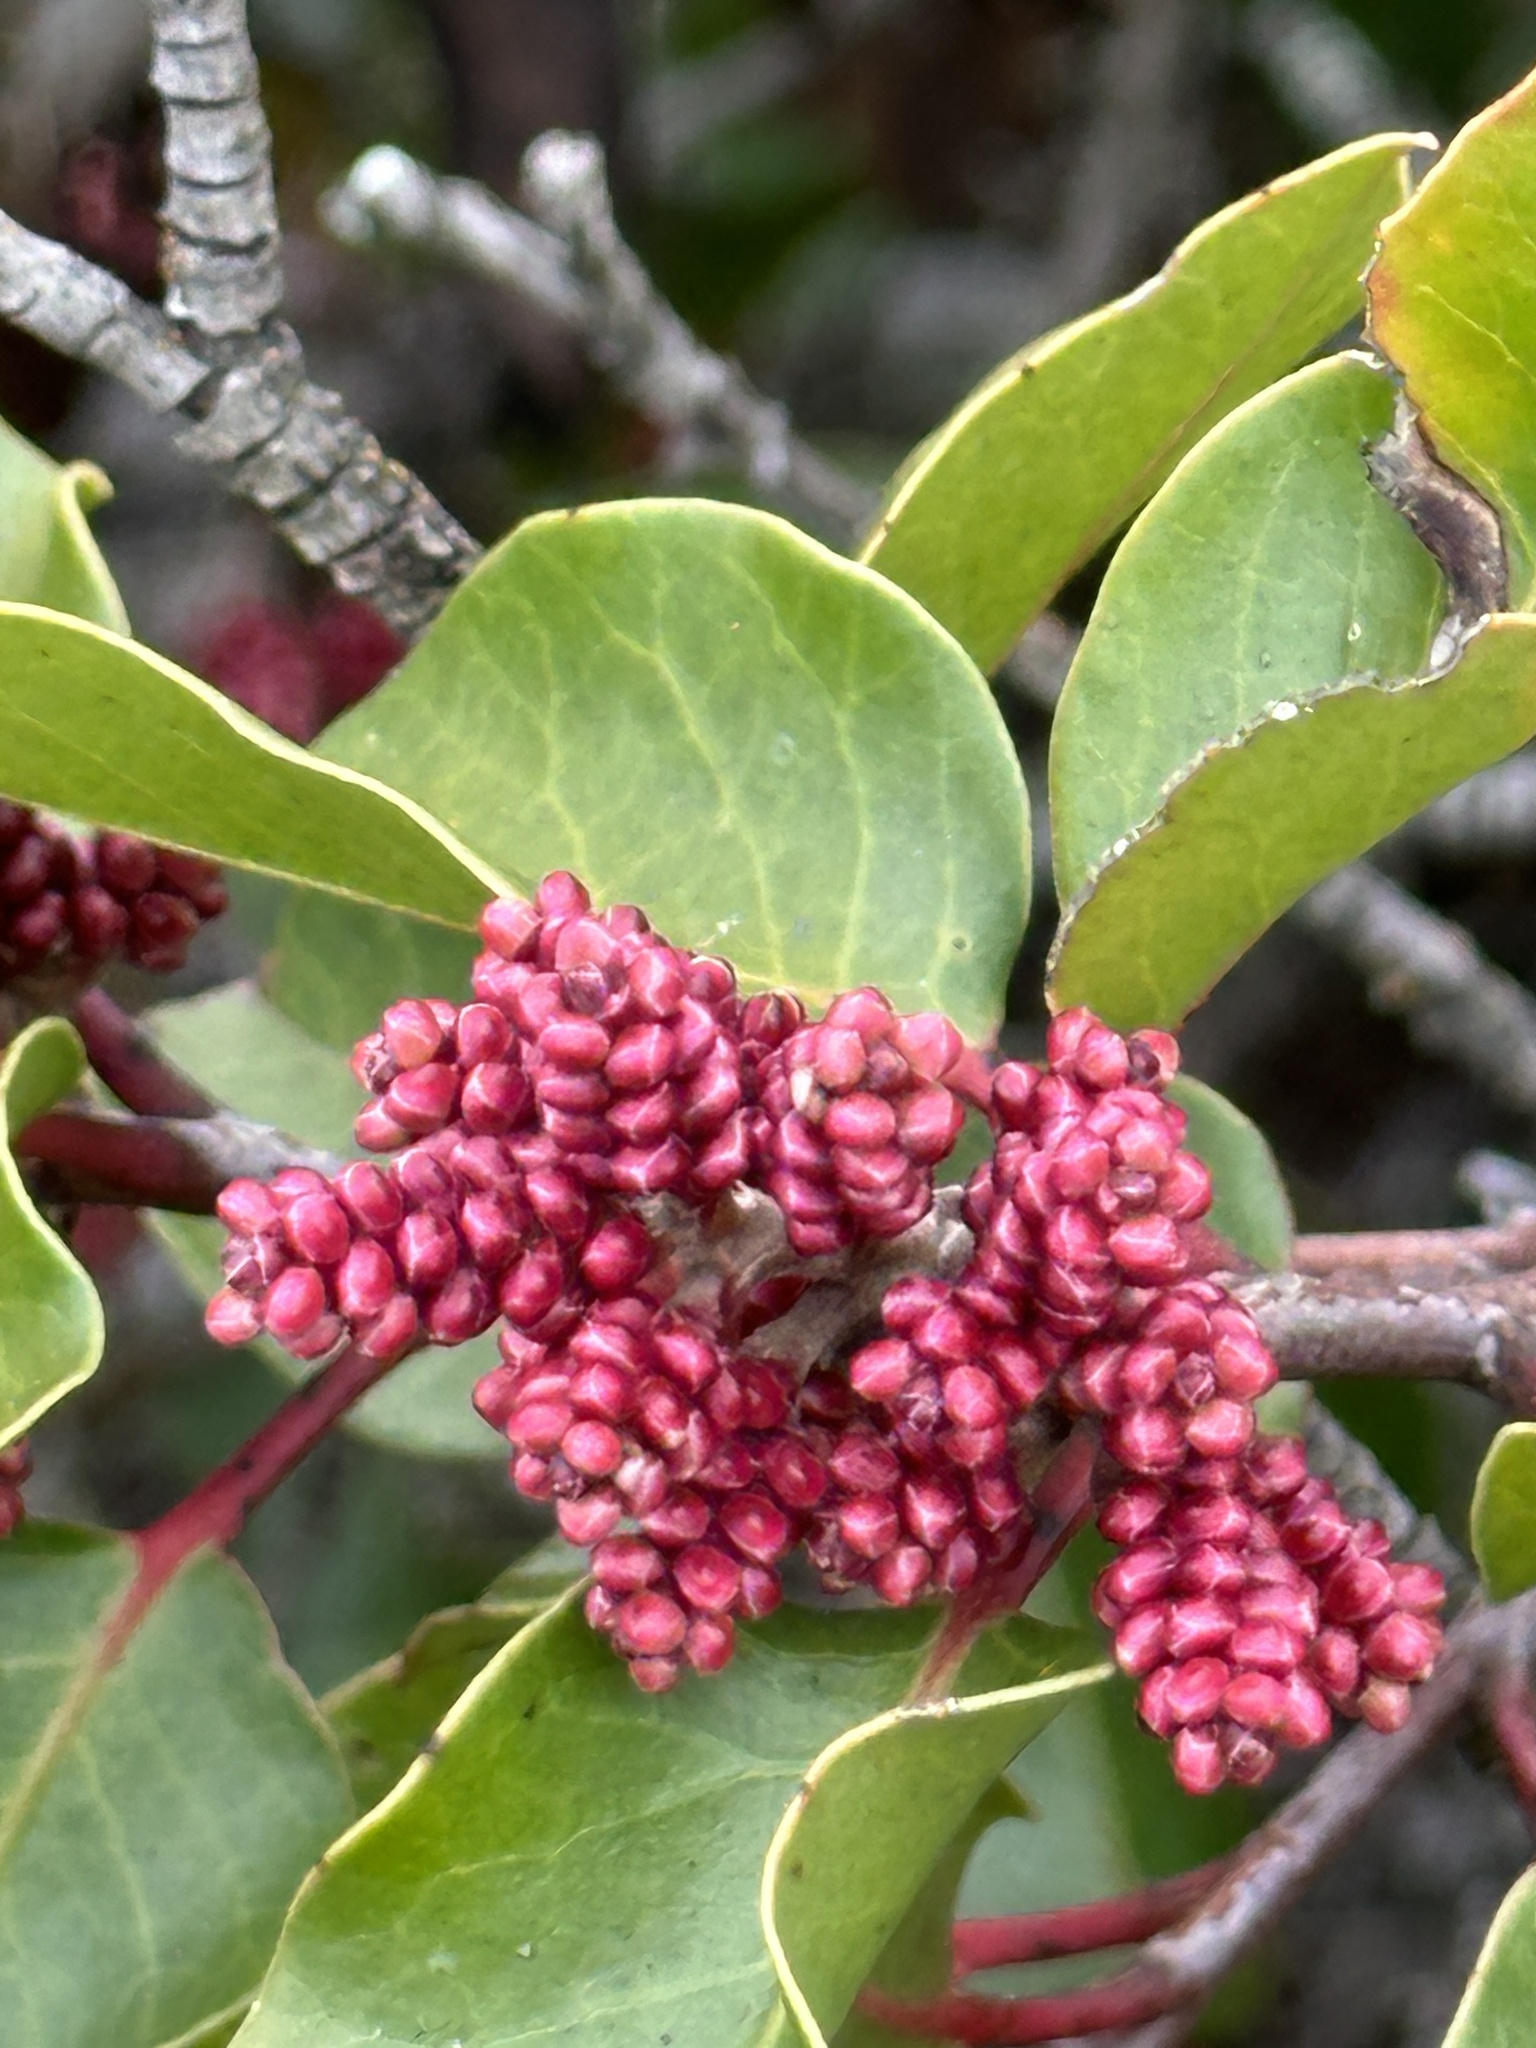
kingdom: Plantae
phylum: Tracheophyta
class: Magnoliopsida
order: Sapindales
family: Anacardiaceae
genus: Rhus
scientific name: Rhus ovata
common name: Sugar sumac
